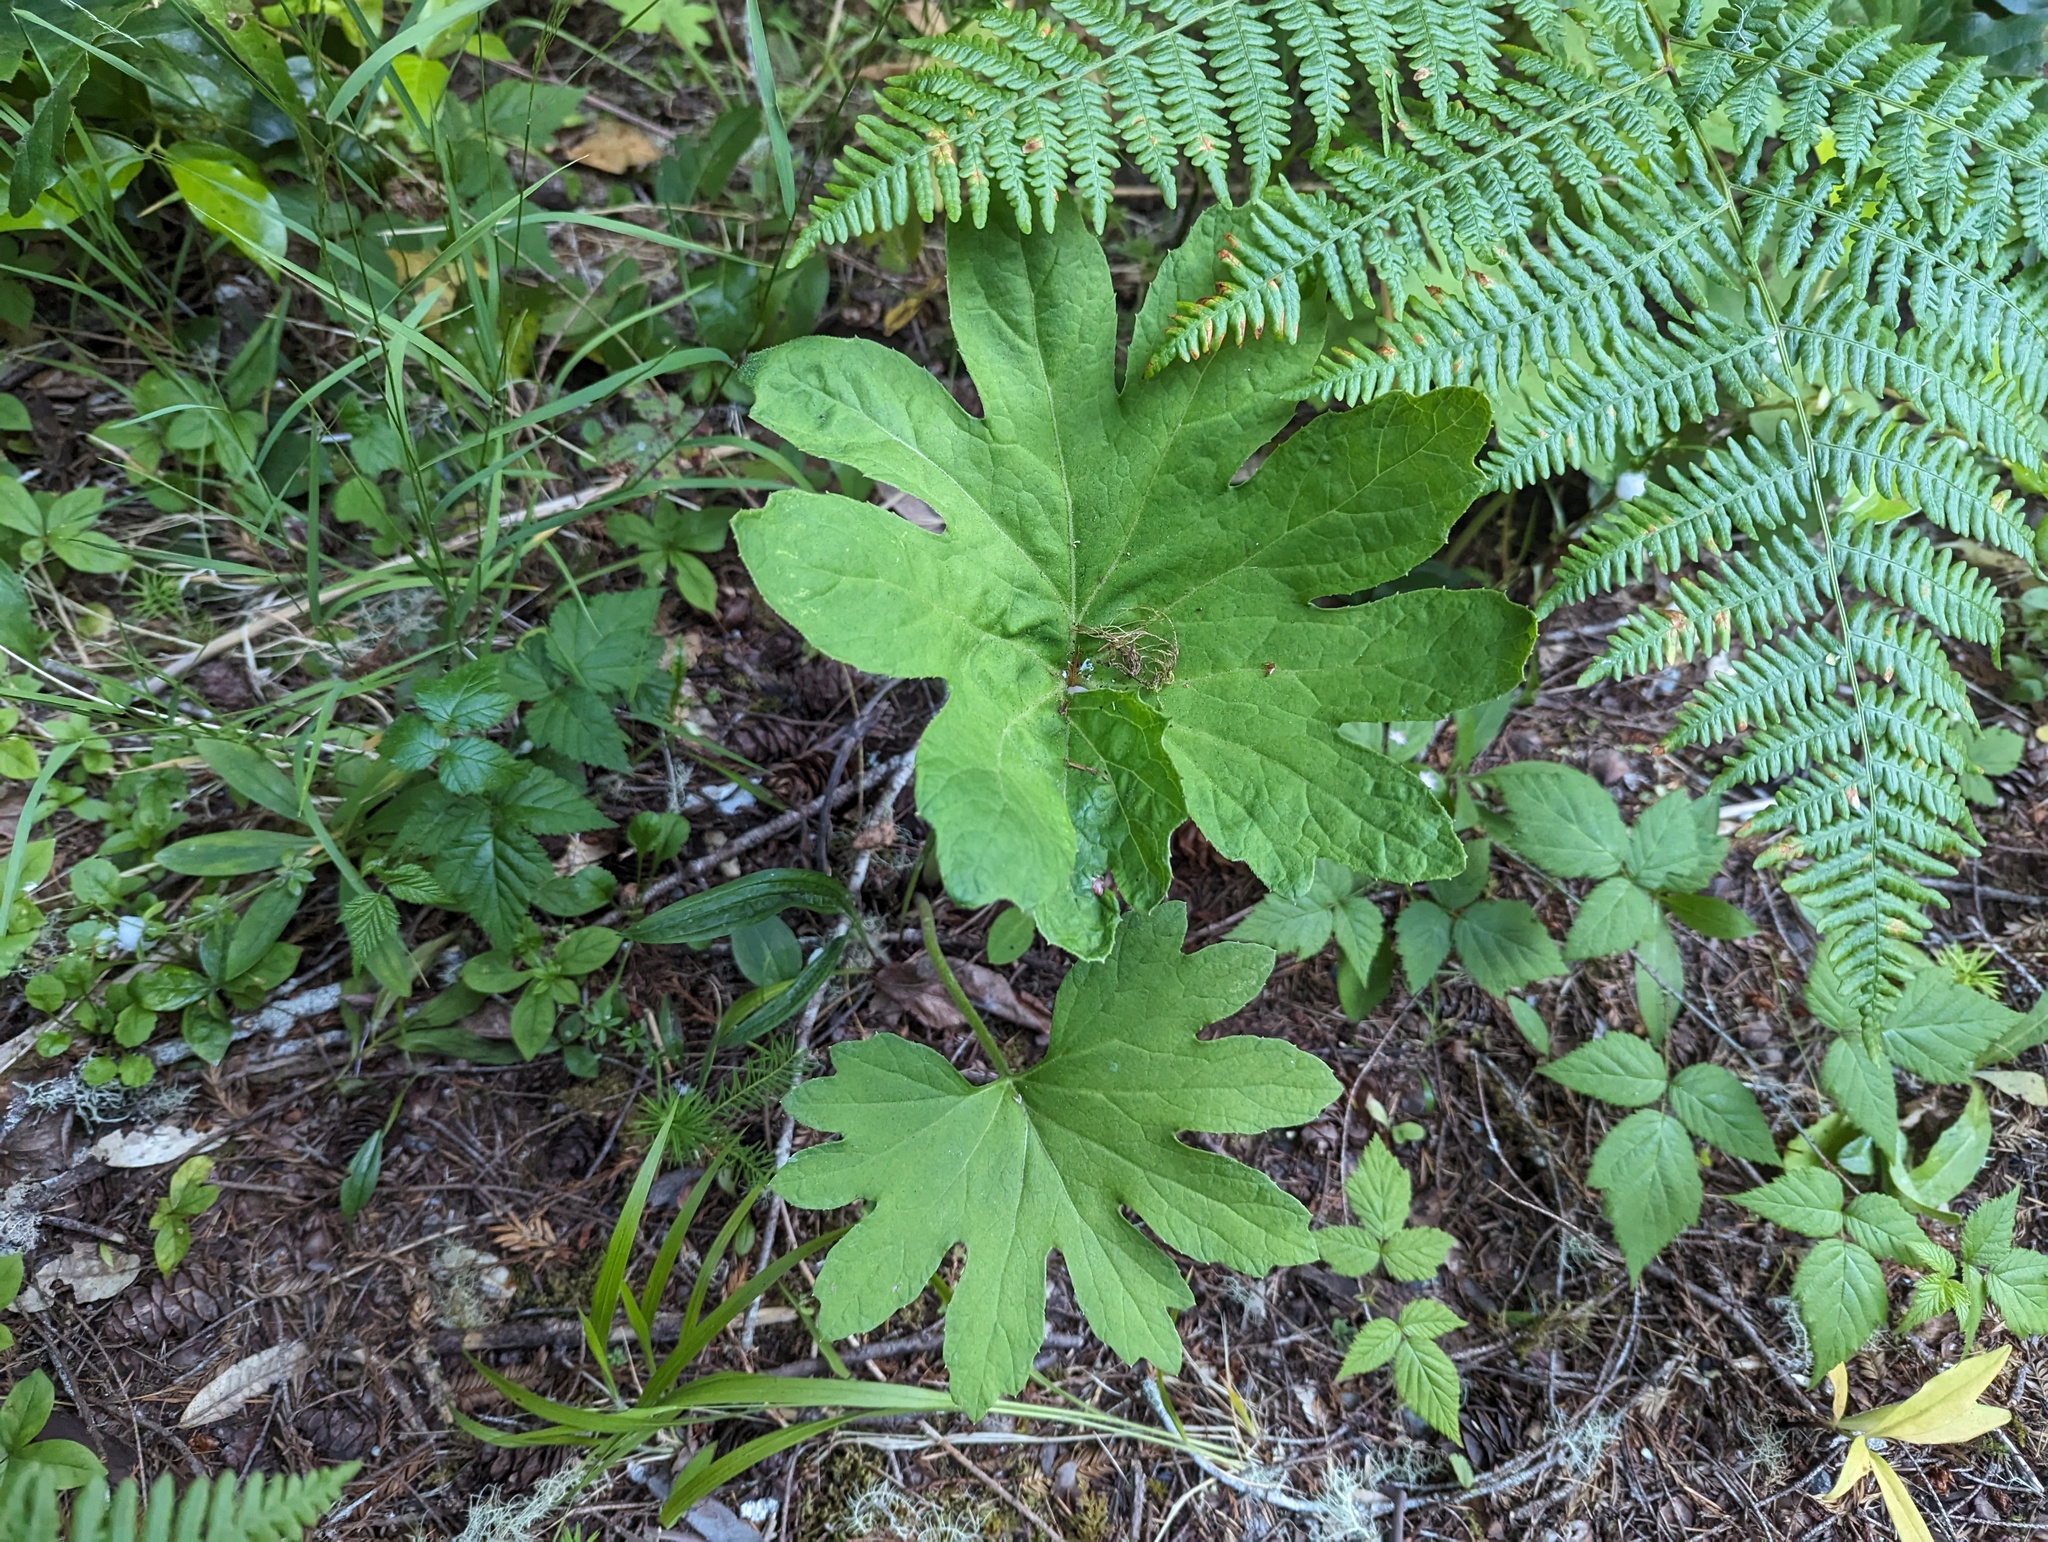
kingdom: Plantae
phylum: Tracheophyta
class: Magnoliopsida
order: Asterales
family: Asteraceae
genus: Petasites
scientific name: Petasites frigidus
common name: Arctic butterbur
